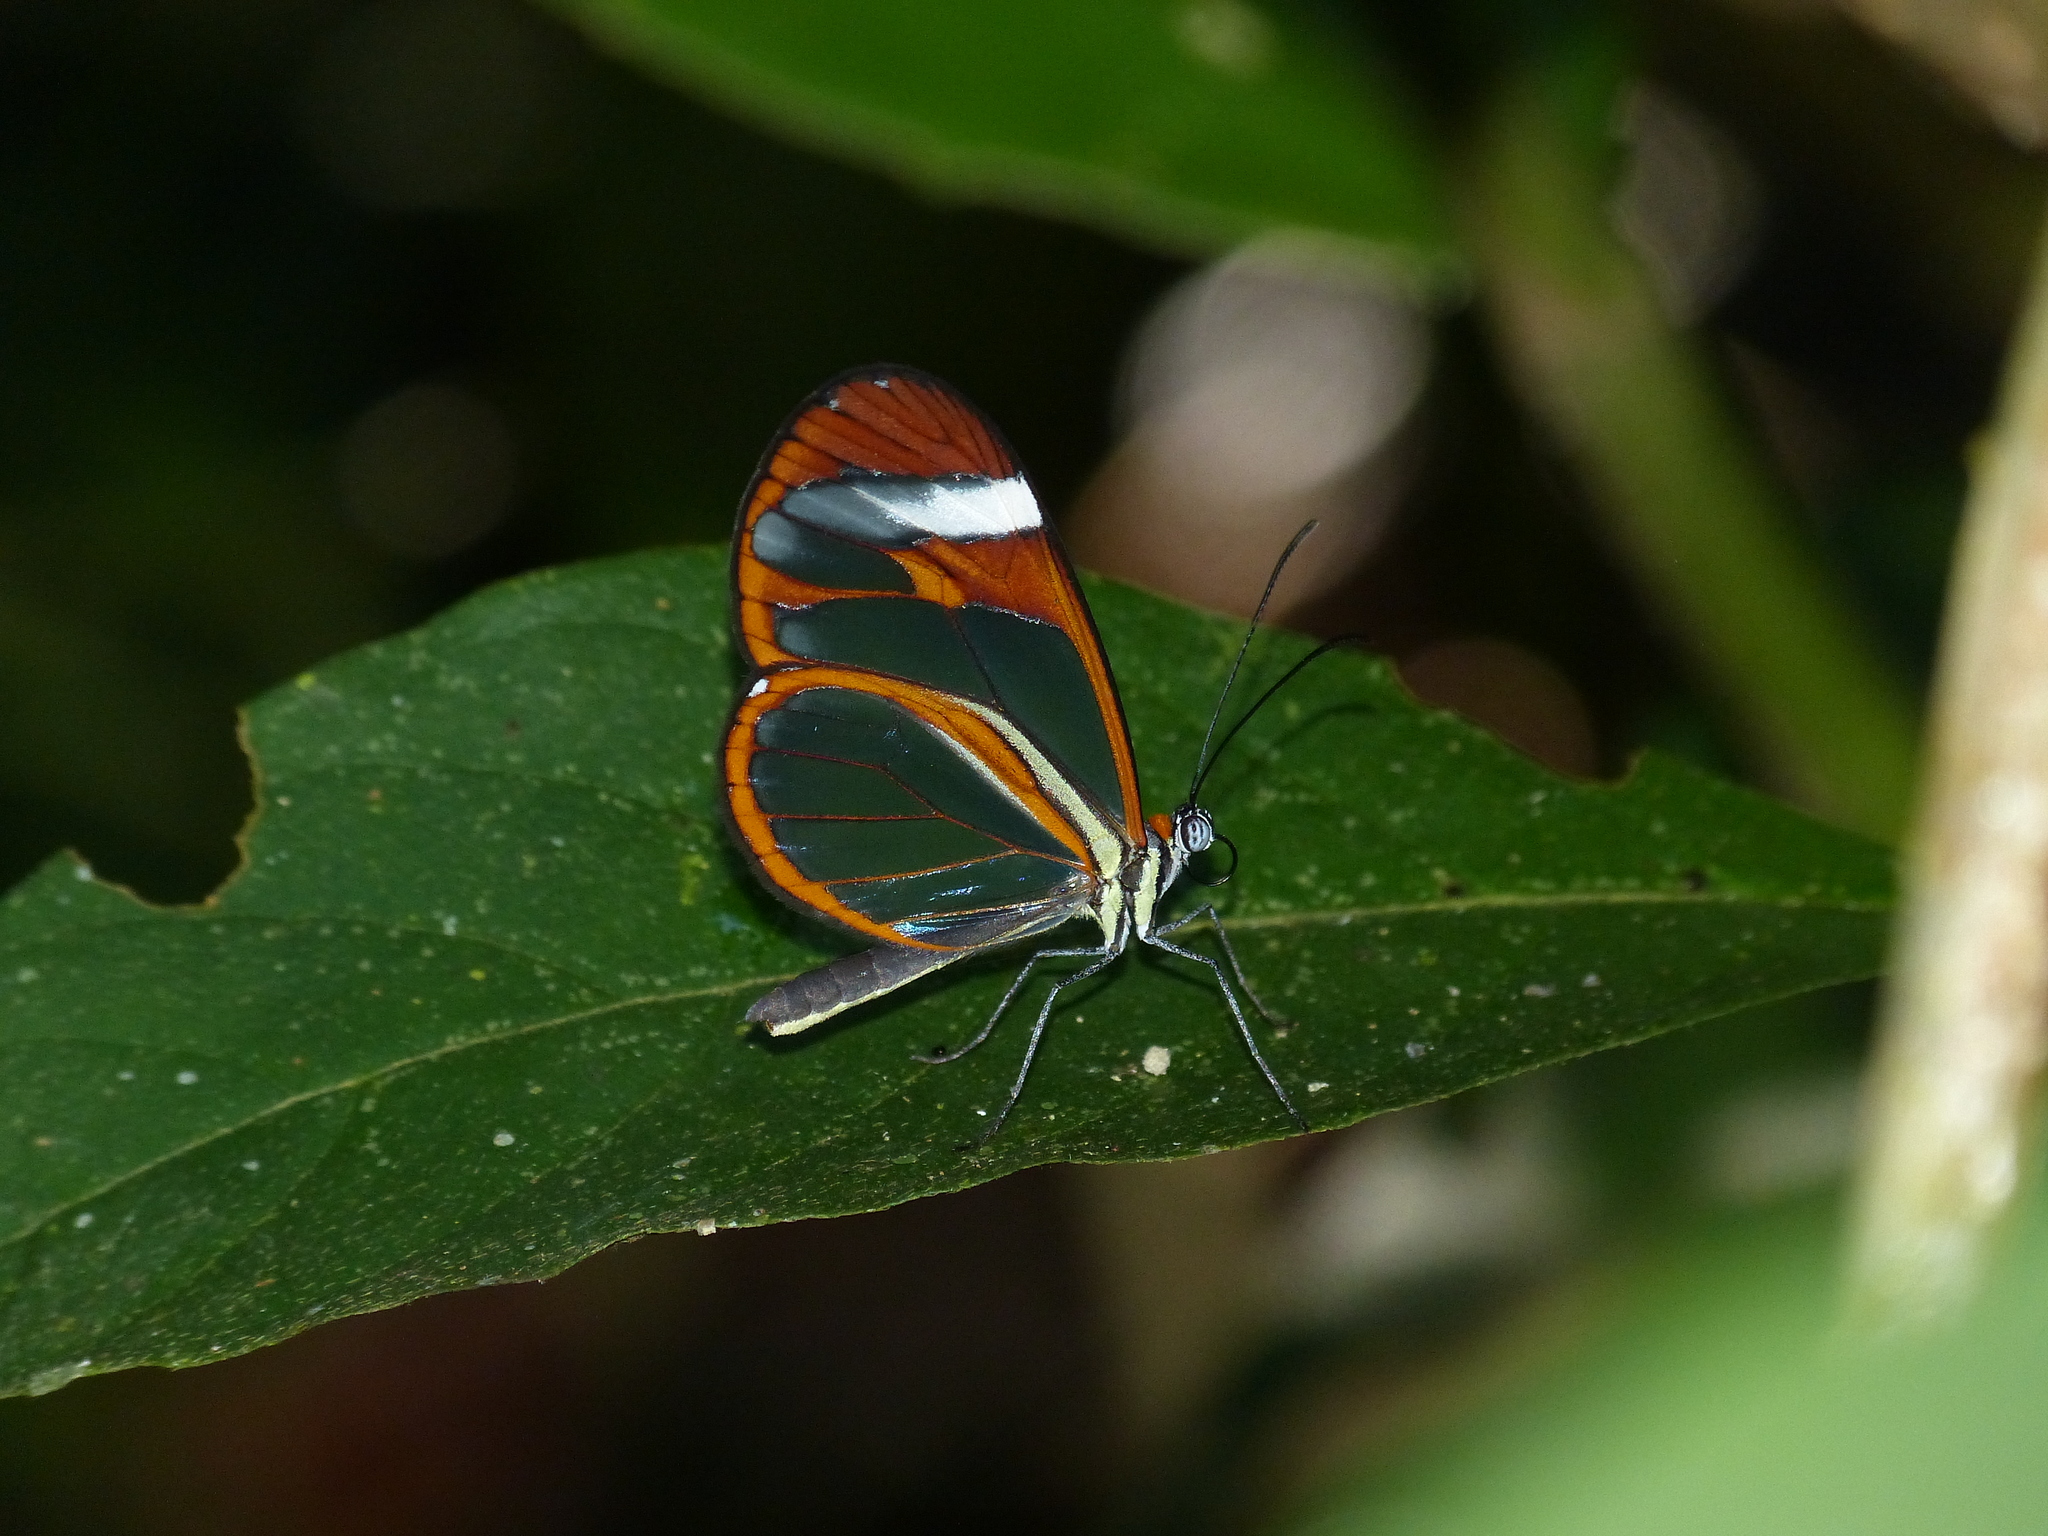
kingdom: Animalia
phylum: Arthropoda
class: Insecta
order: Lepidoptera
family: Nymphalidae
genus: Ithomia
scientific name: Ithomia patilla
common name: Patilla clearwing
